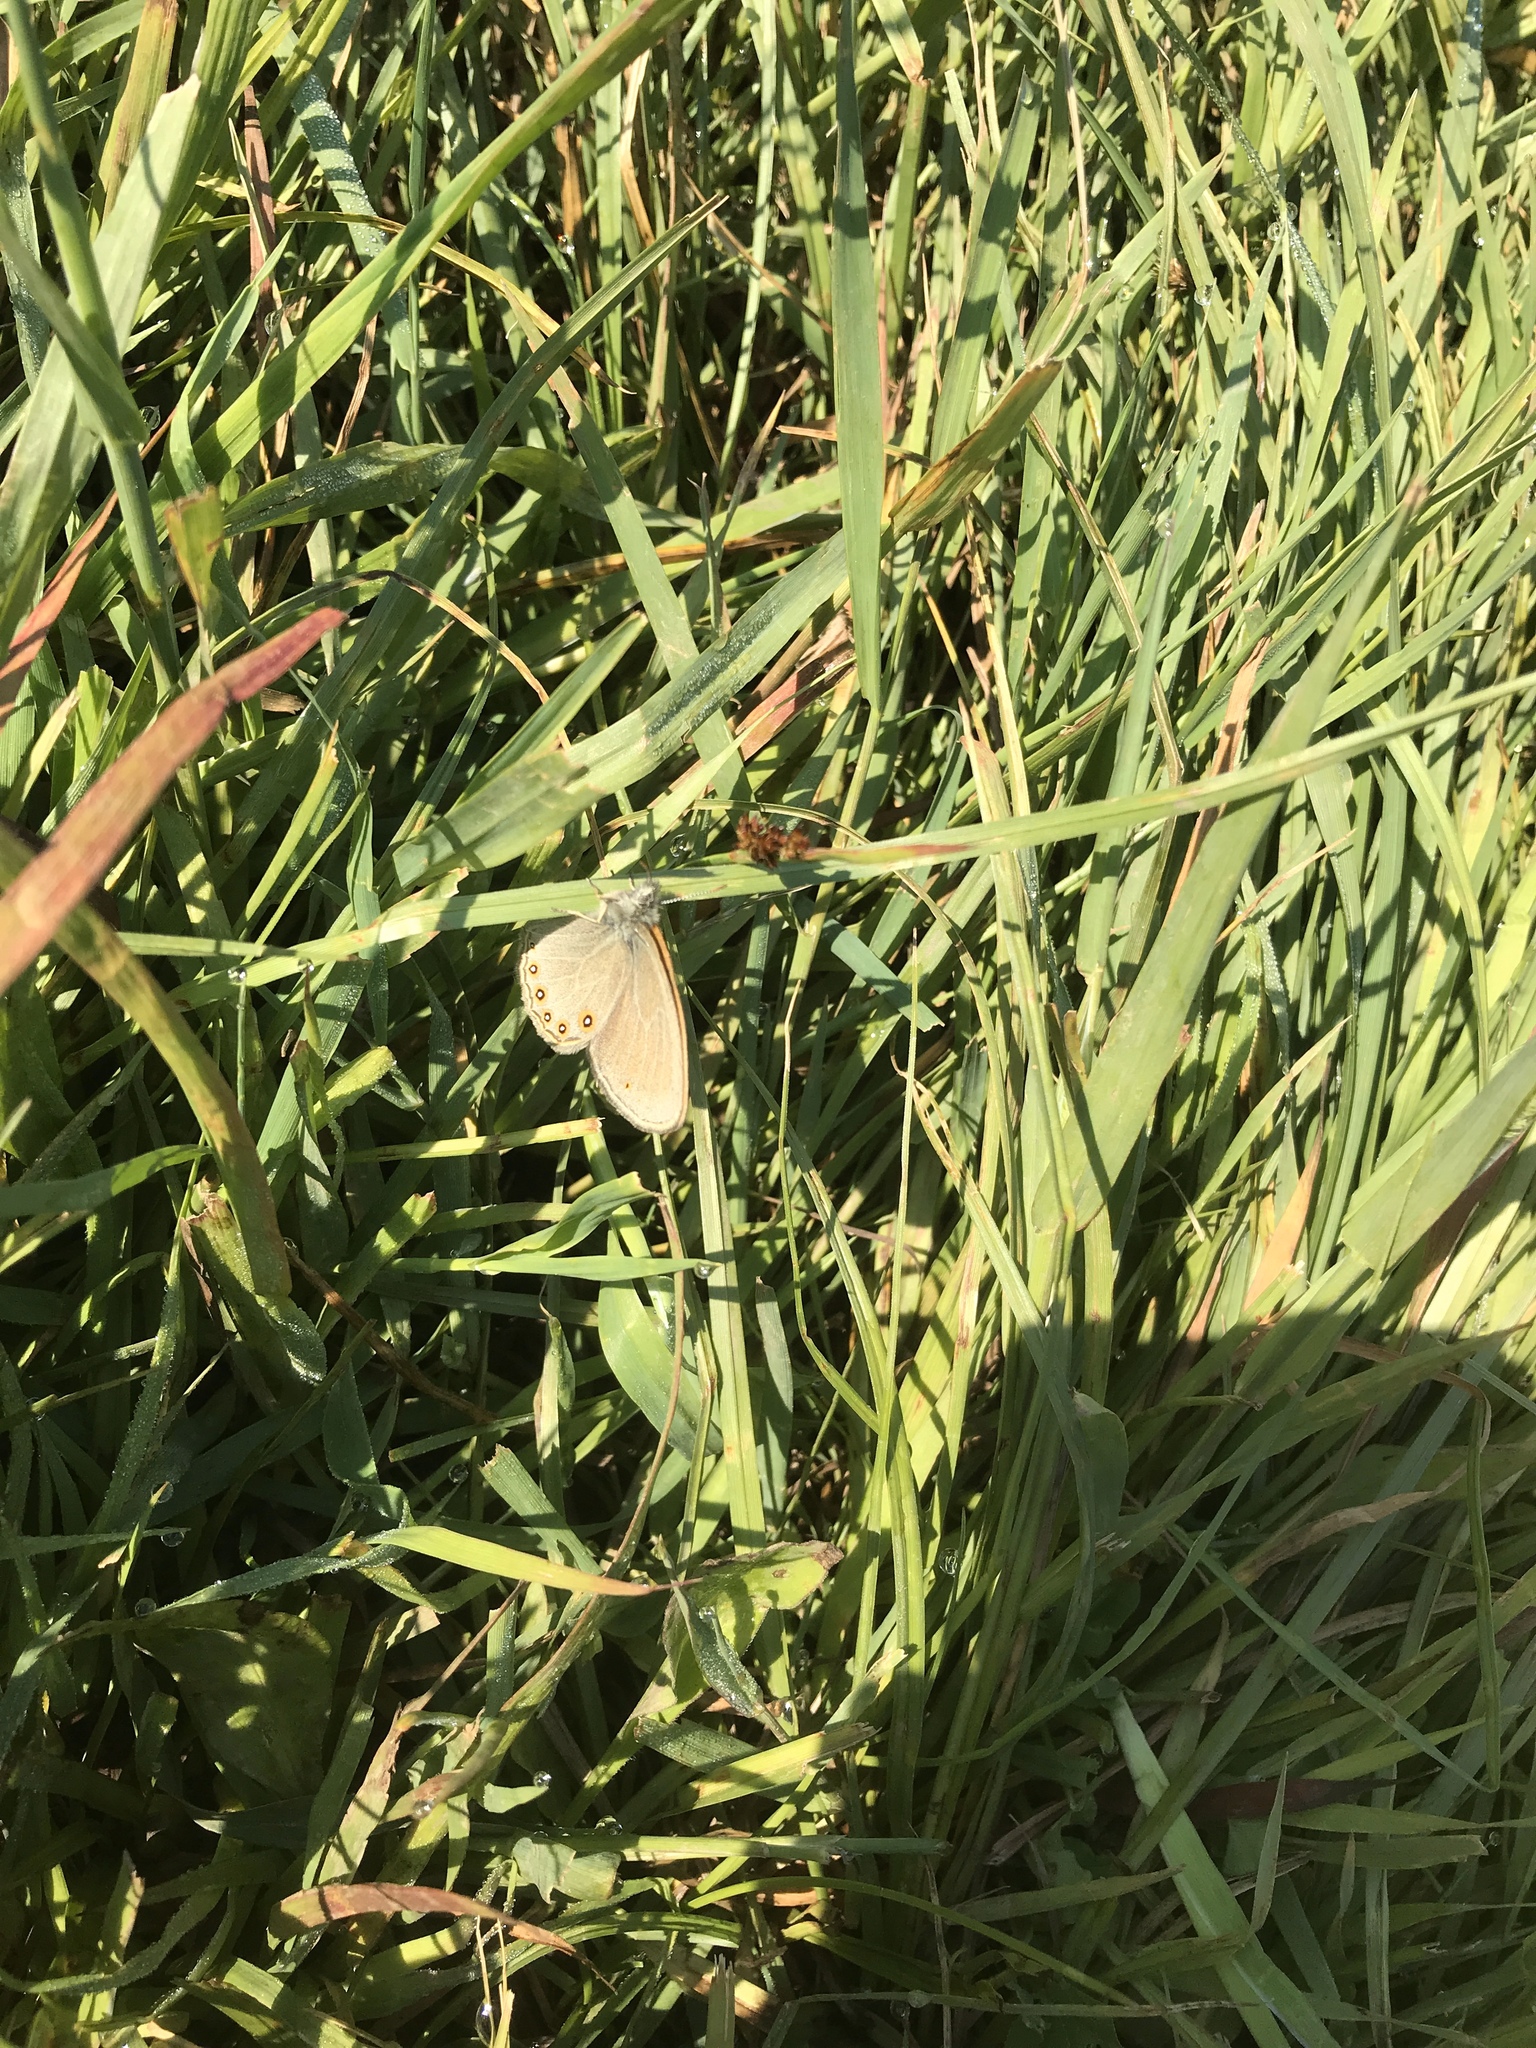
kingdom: Animalia
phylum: Arthropoda
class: Insecta
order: Lepidoptera
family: Nymphalidae
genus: Coenonympha
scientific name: Coenonympha haydeni
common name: Hayden's ringlet
